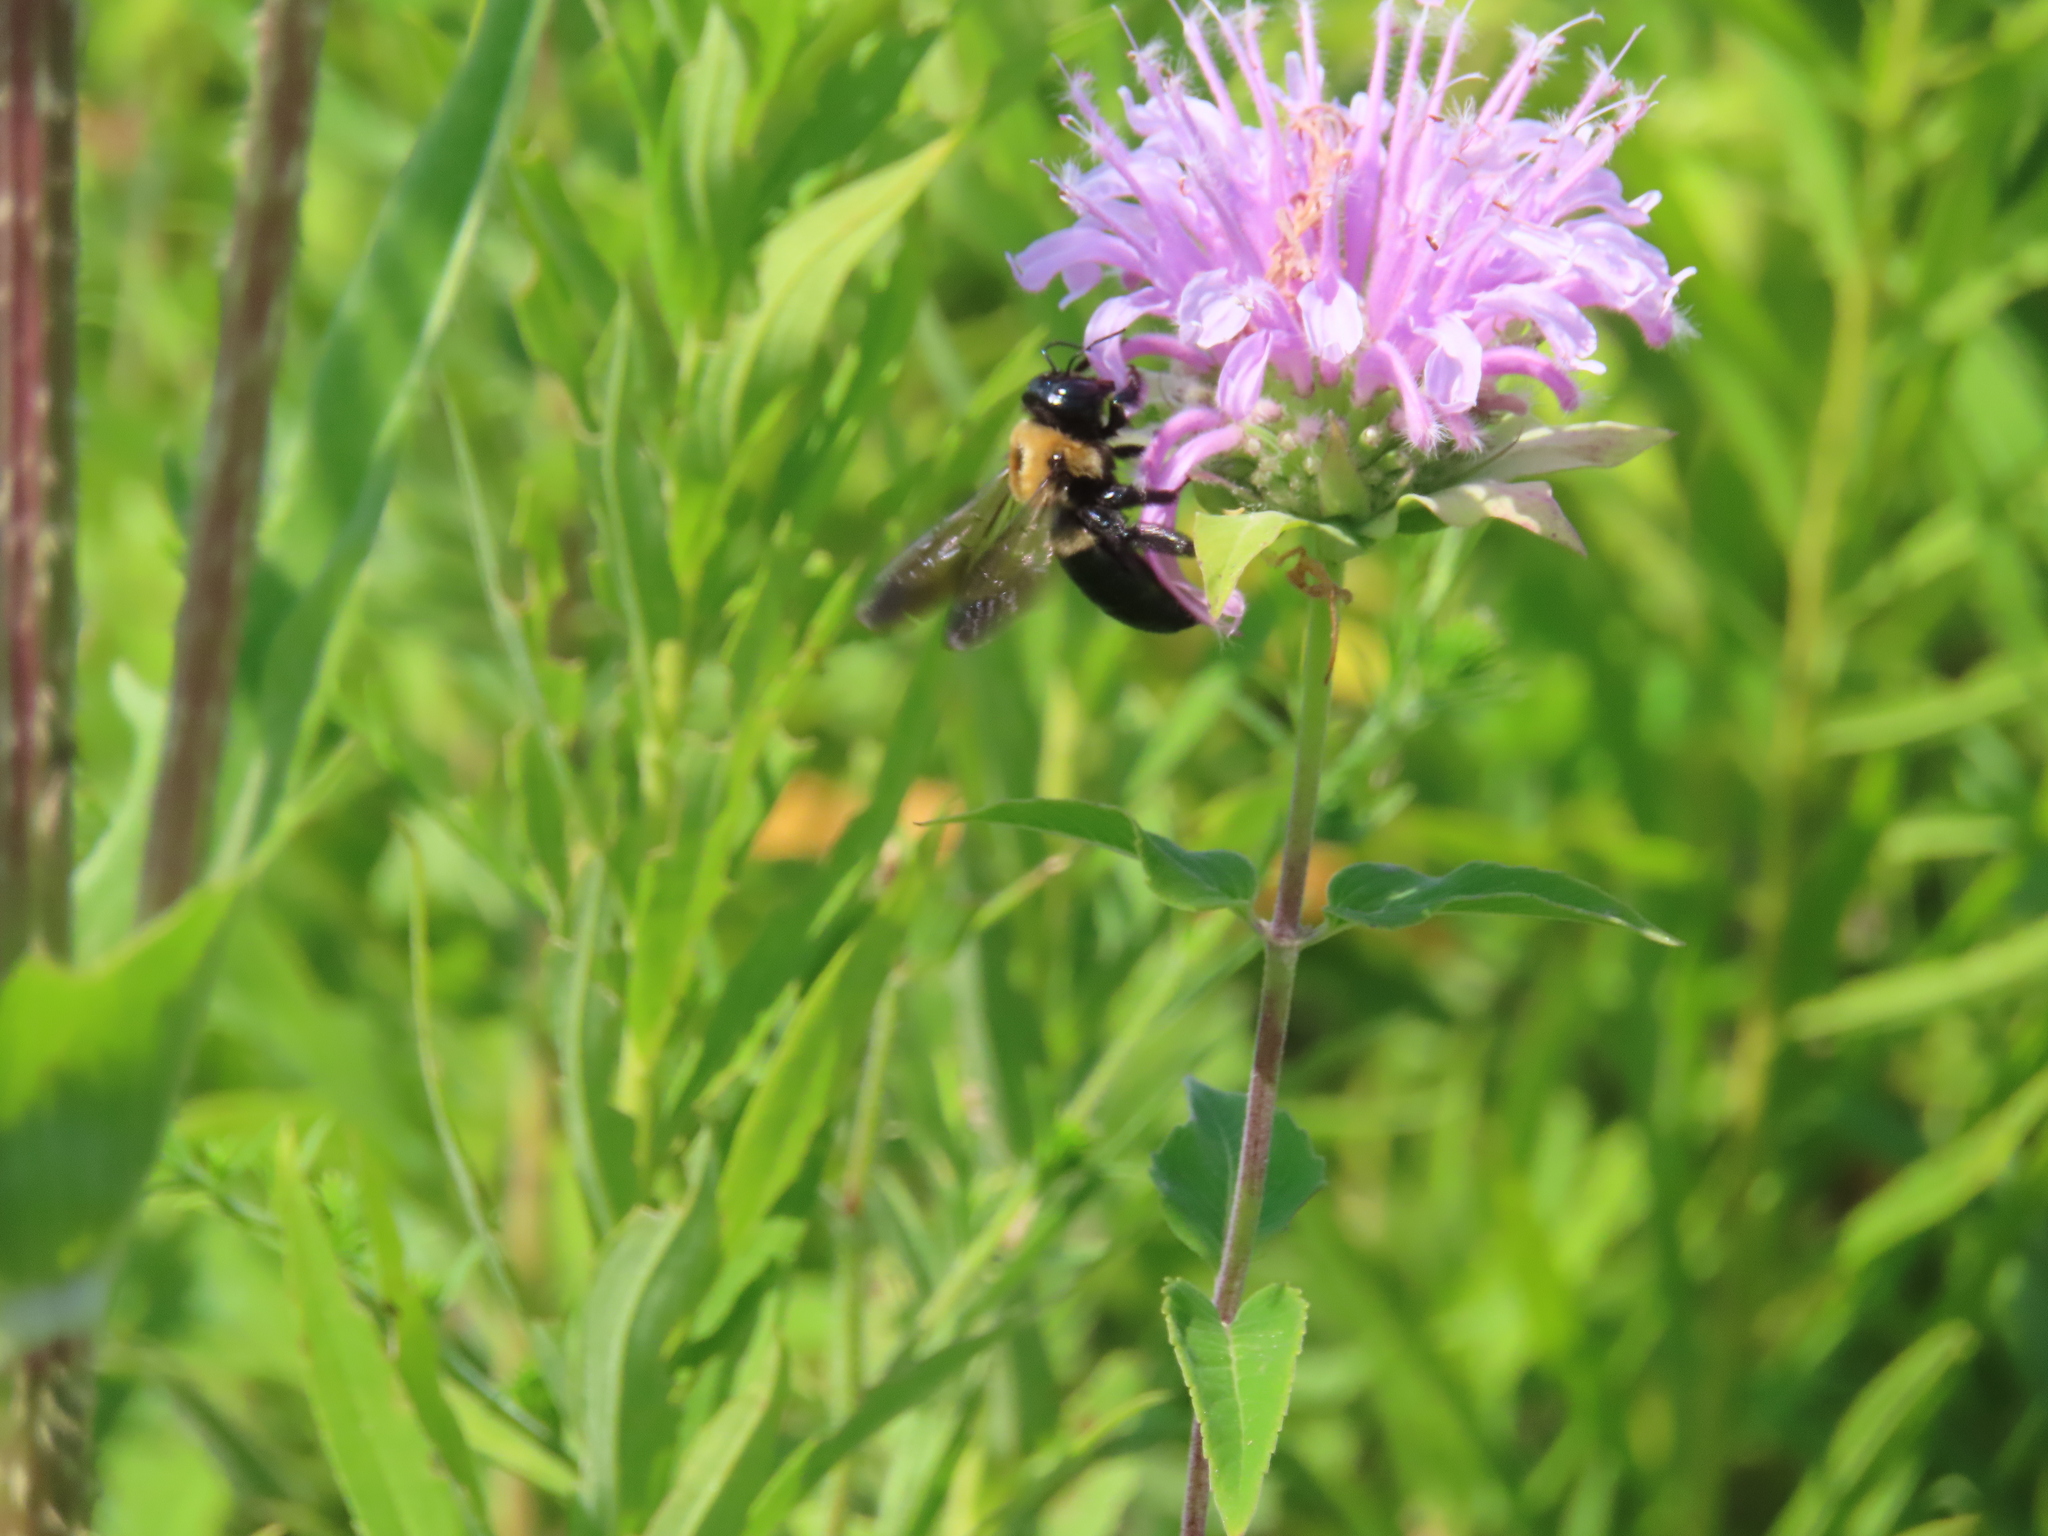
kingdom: Animalia
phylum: Arthropoda
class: Insecta
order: Hymenoptera
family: Apidae
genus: Xylocopa
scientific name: Xylocopa virginica
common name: Carpenter bee
